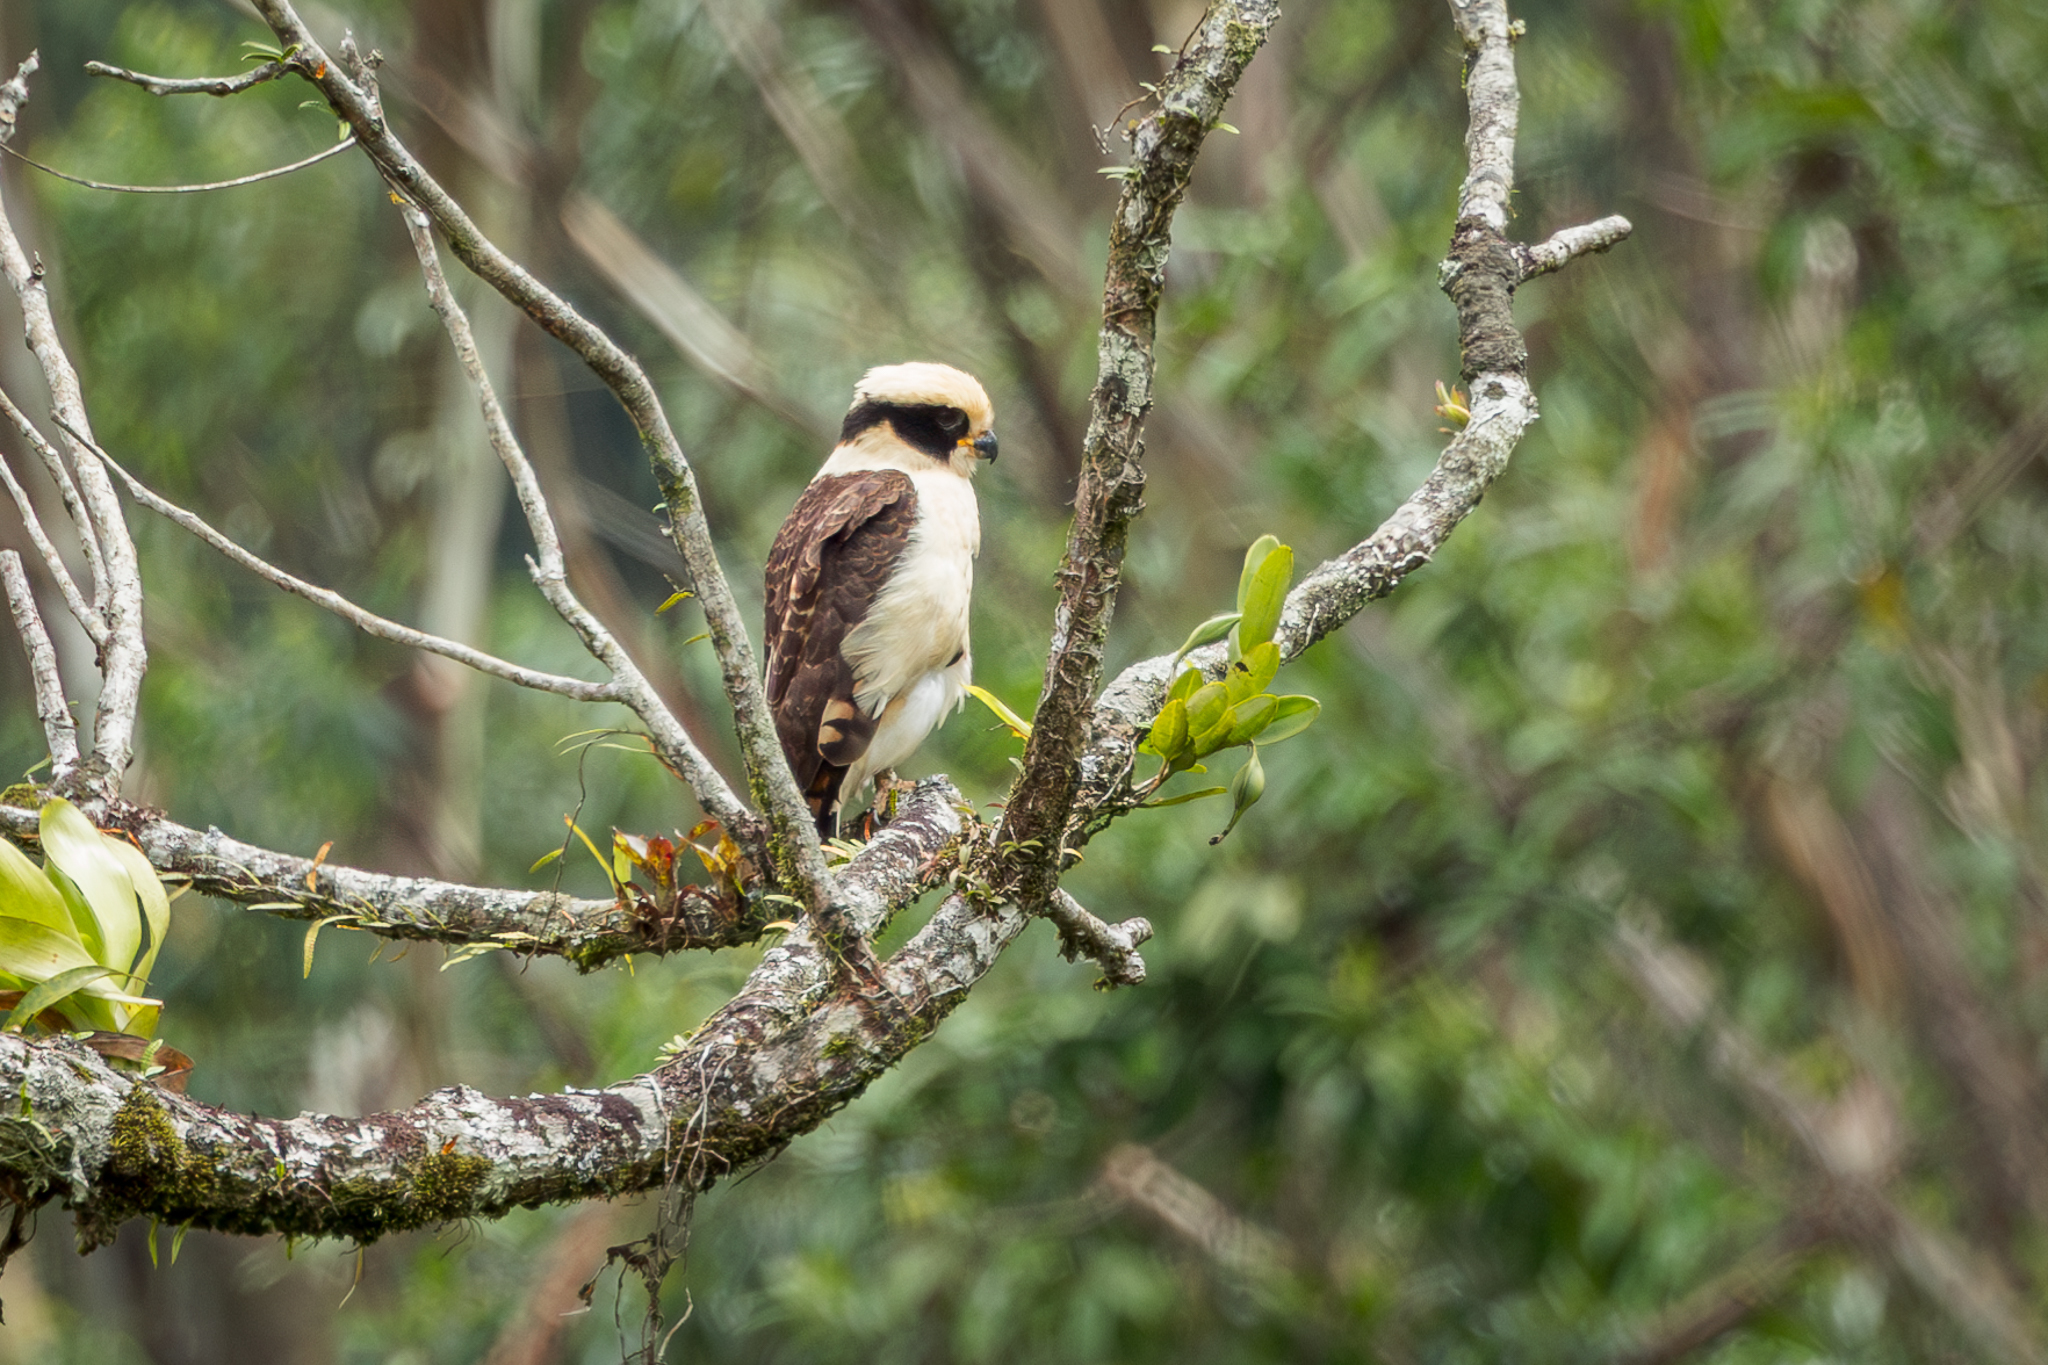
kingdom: Animalia
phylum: Chordata
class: Aves
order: Falconiformes
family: Falconidae
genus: Herpetotheres
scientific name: Herpetotheres cachinnans
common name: Laughing falcon
